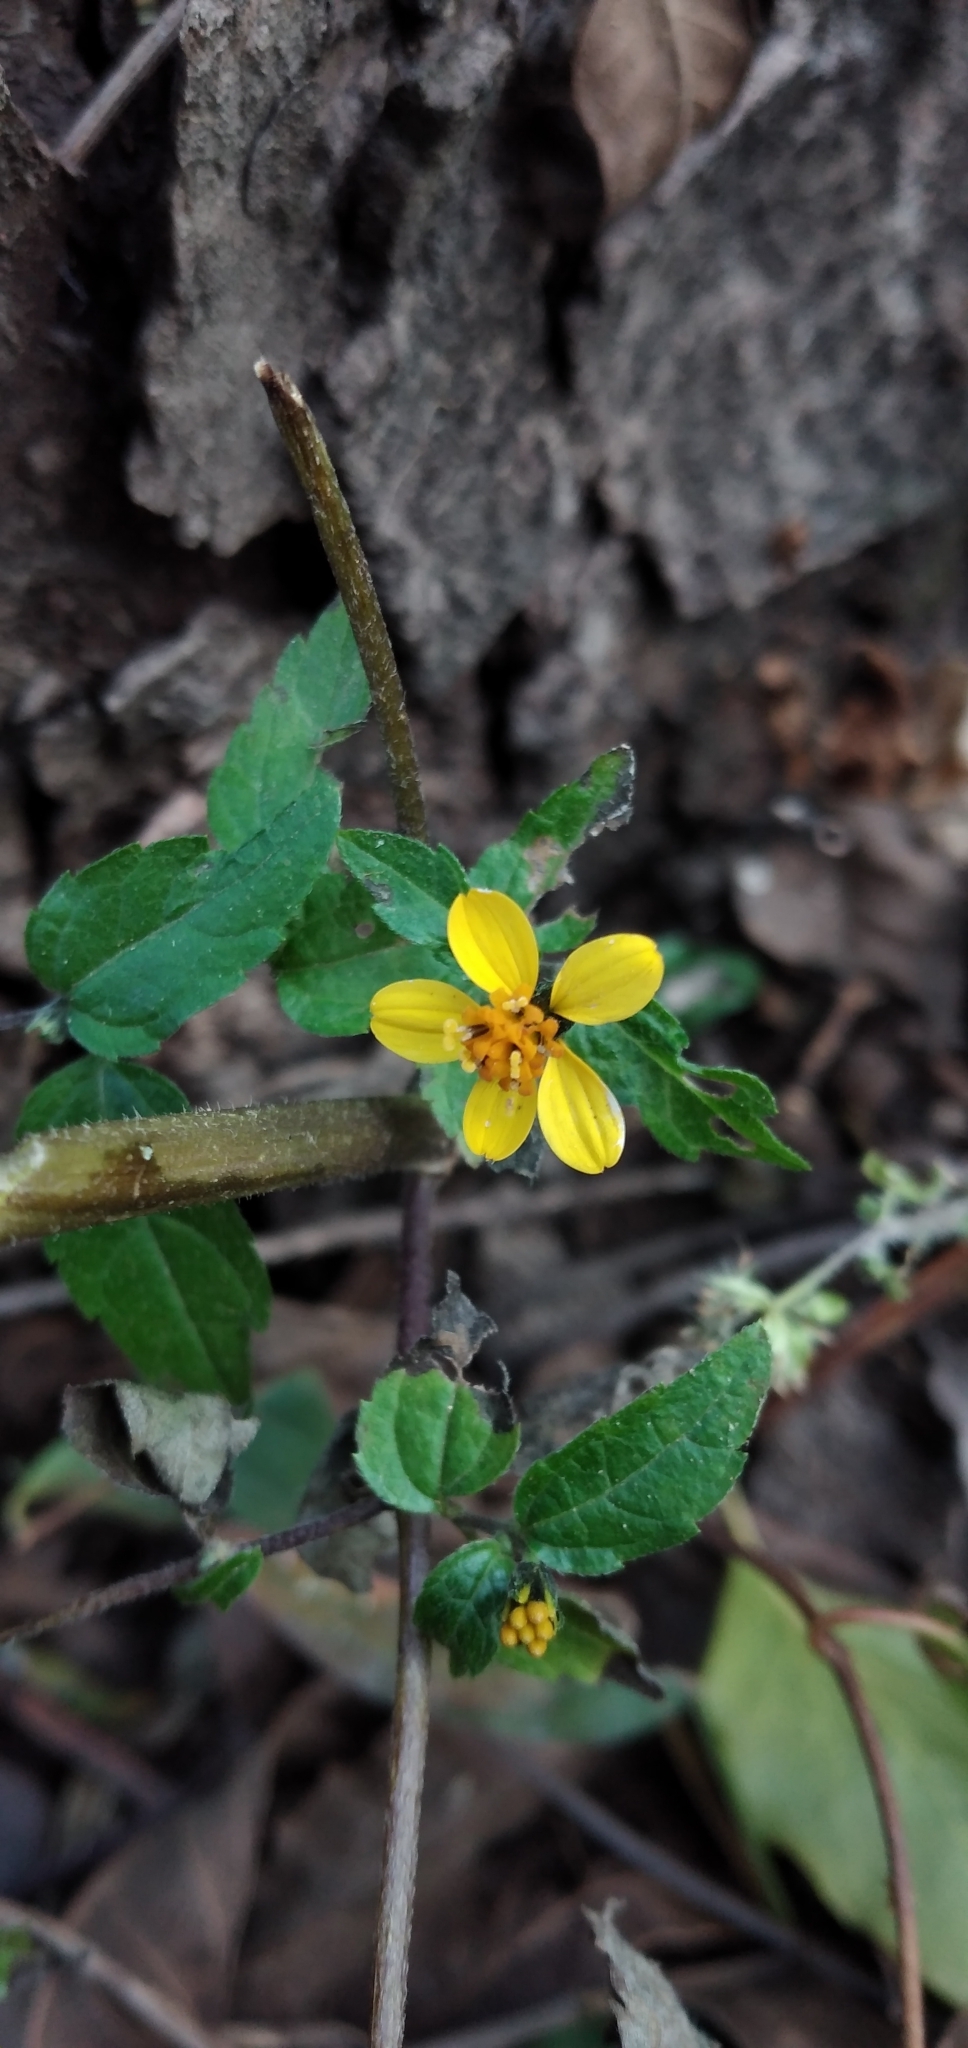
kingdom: Plantae
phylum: Tracheophyta
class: Magnoliopsida
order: Asterales
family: Asteraceae
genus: Hymenostephium
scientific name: Hymenostephium debile
